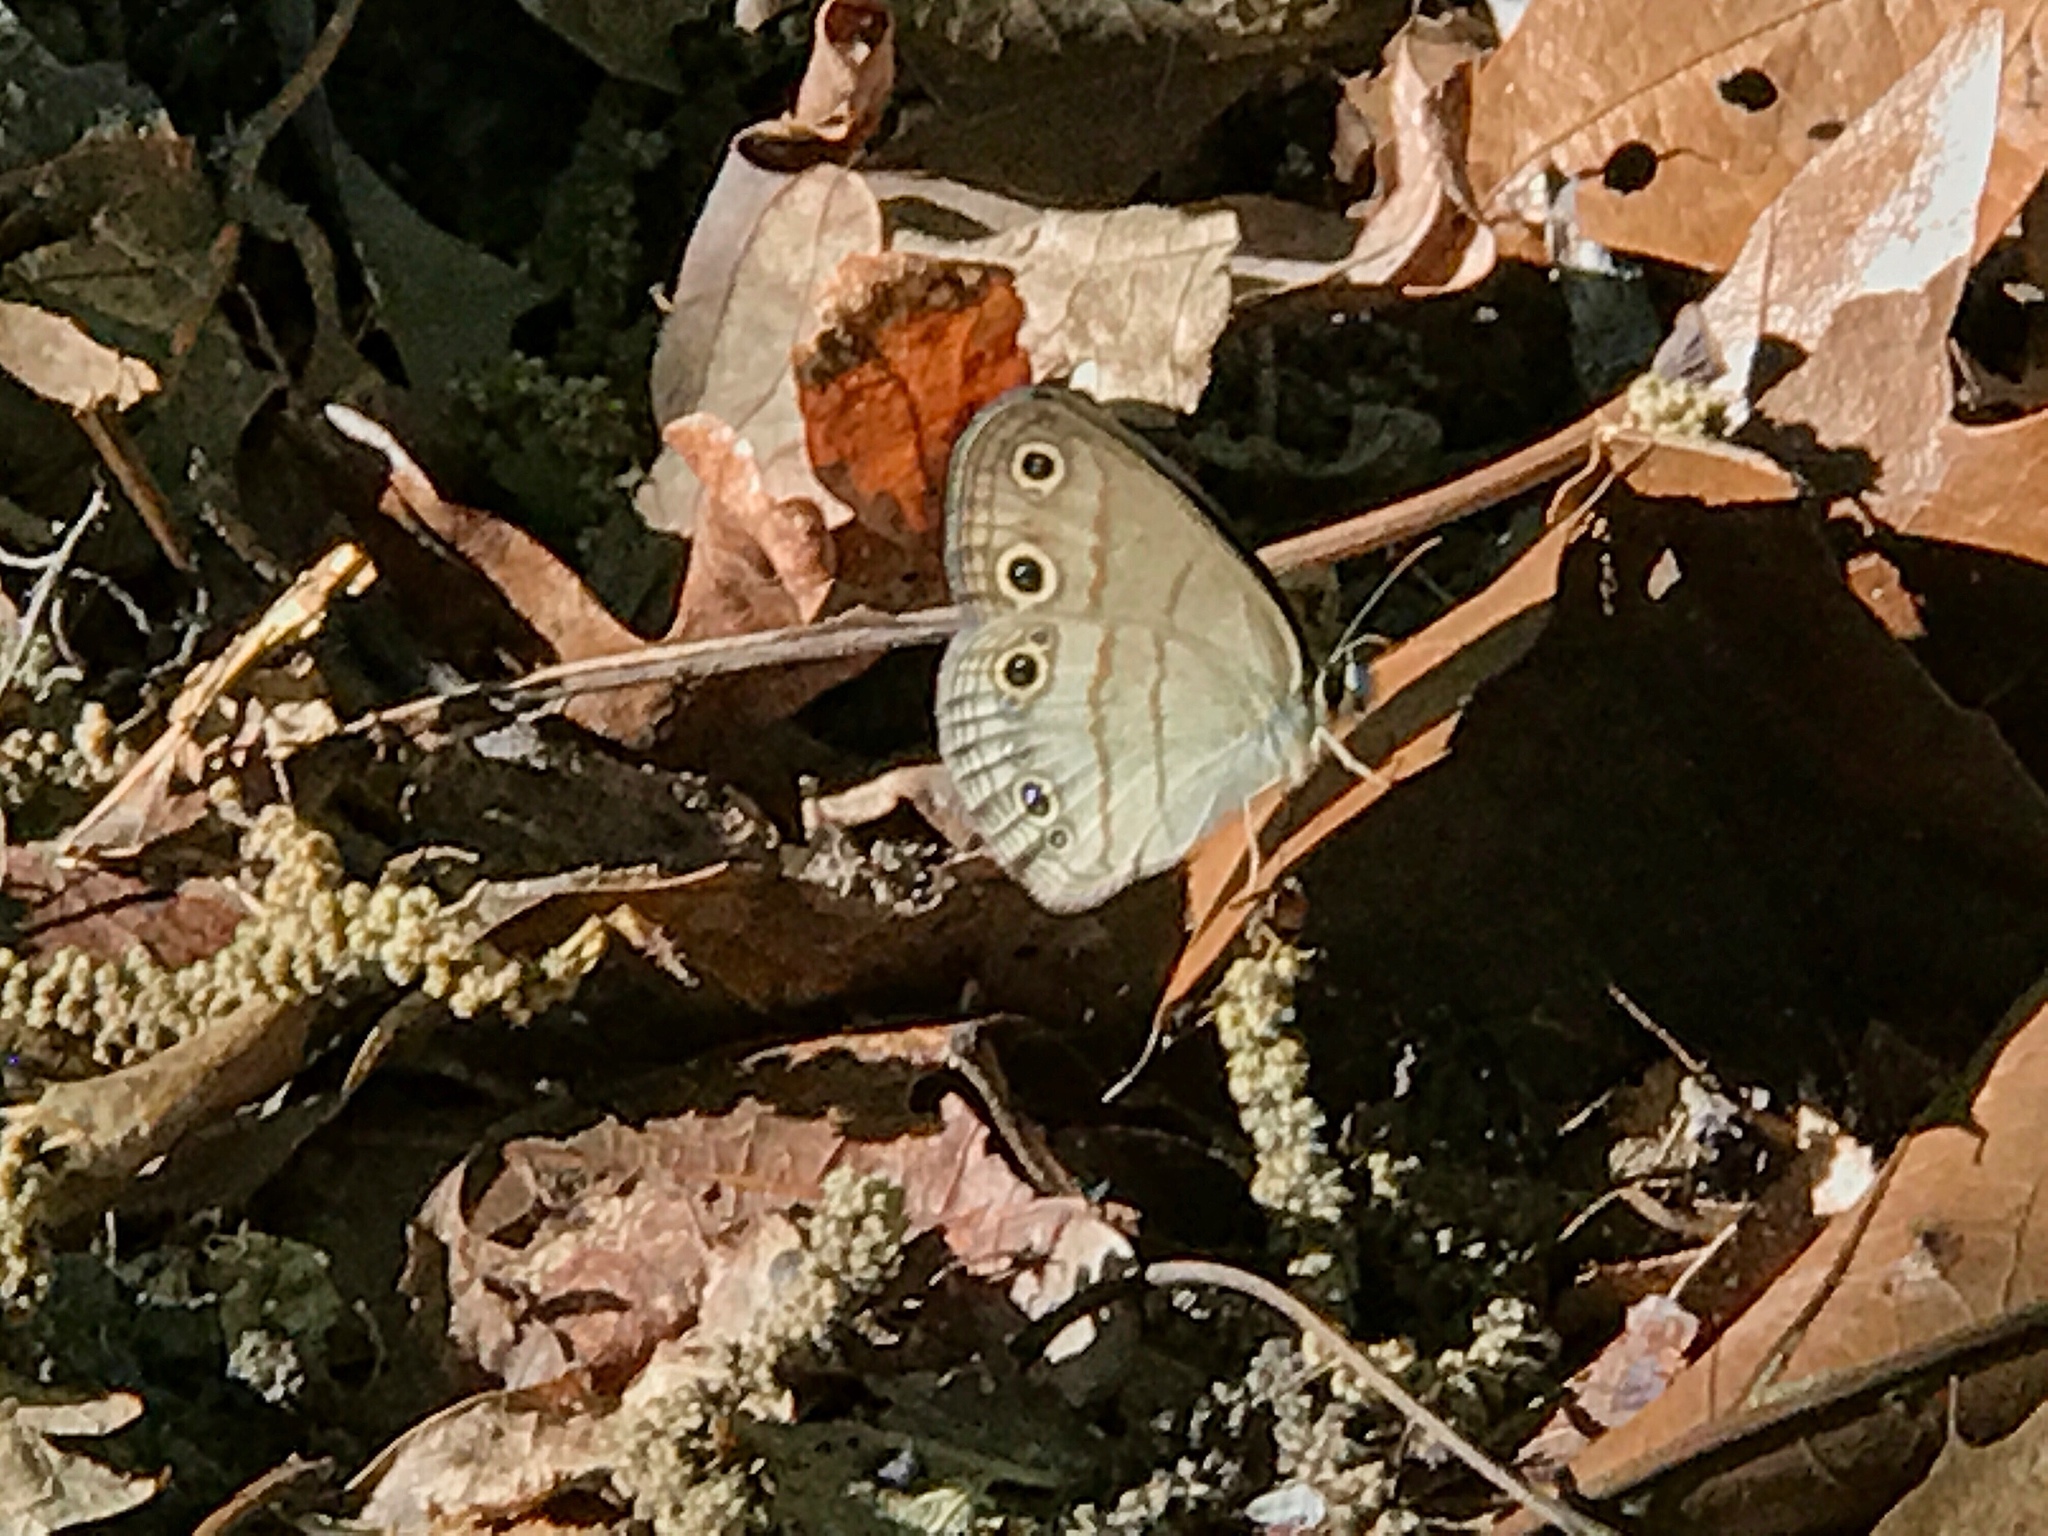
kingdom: Animalia
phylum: Arthropoda
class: Insecta
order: Lepidoptera
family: Nymphalidae
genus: Euptychia
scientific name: Euptychia cymela
